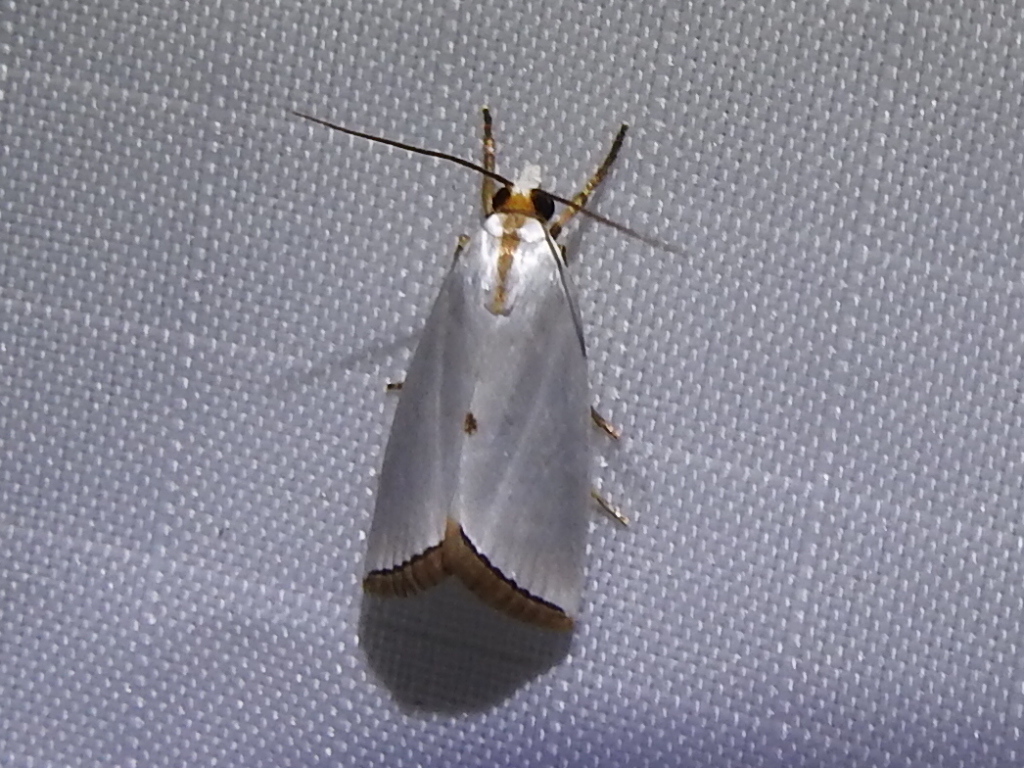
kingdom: Animalia
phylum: Arthropoda
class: Insecta
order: Lepidoptera
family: Crambidae
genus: Argyria
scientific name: Argyria nivalis
